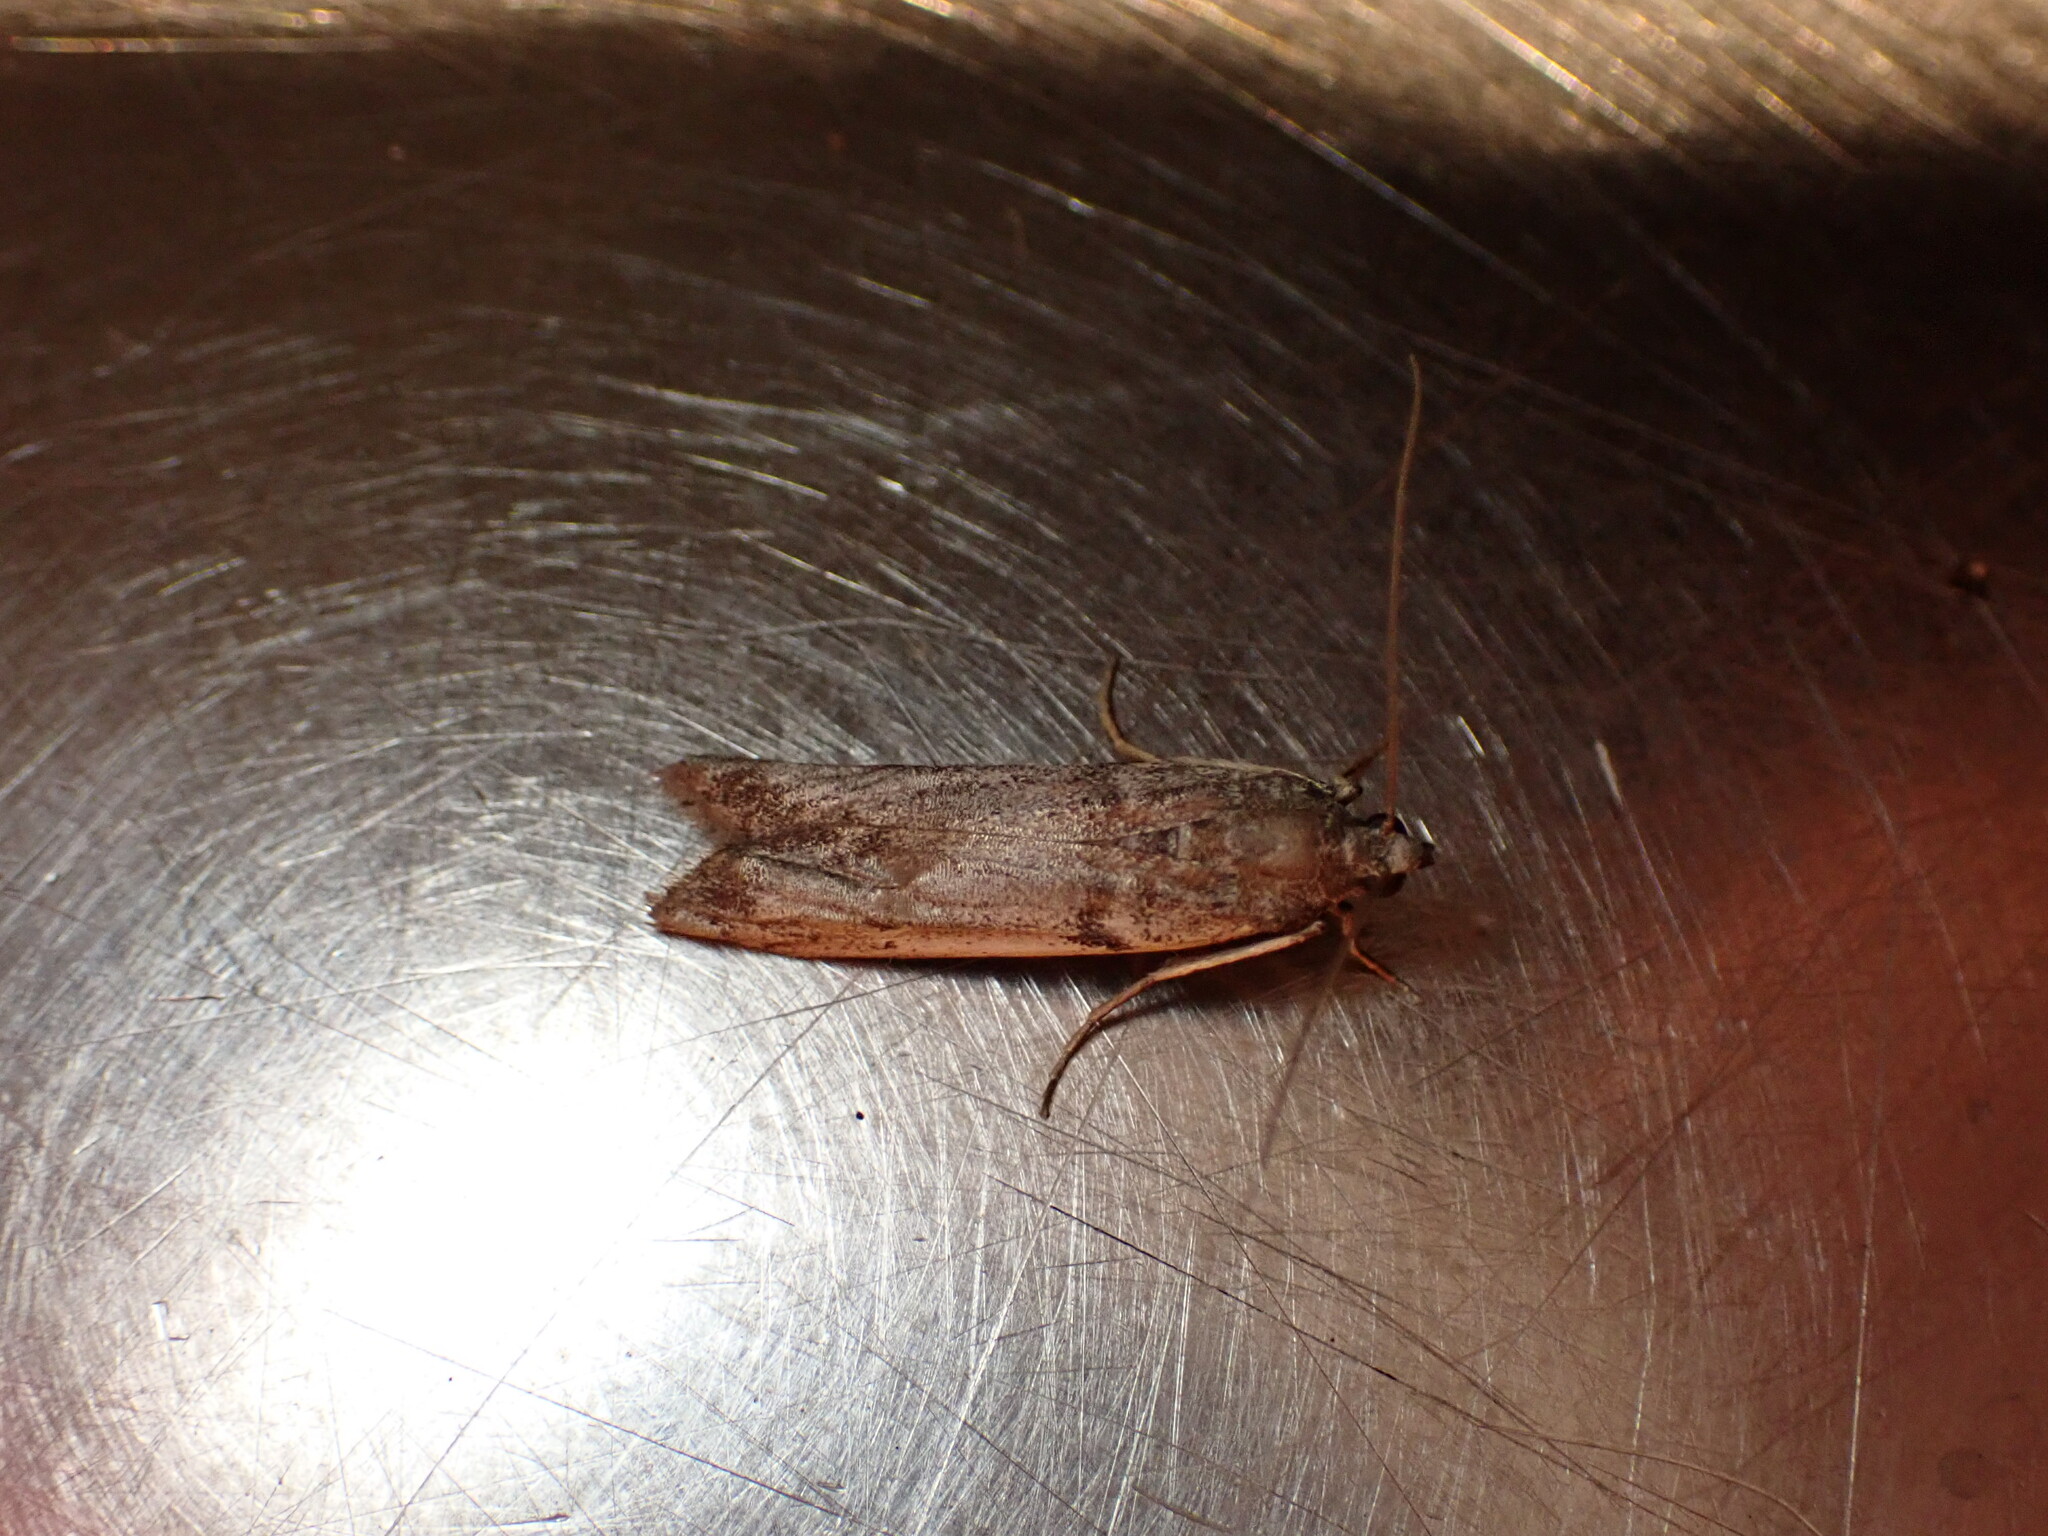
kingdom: Animalia
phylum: Arthropoda
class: Insecta
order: Lepidoptera
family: Pyralidae
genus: Patagoniodes
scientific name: Patagoniodes farinaria
